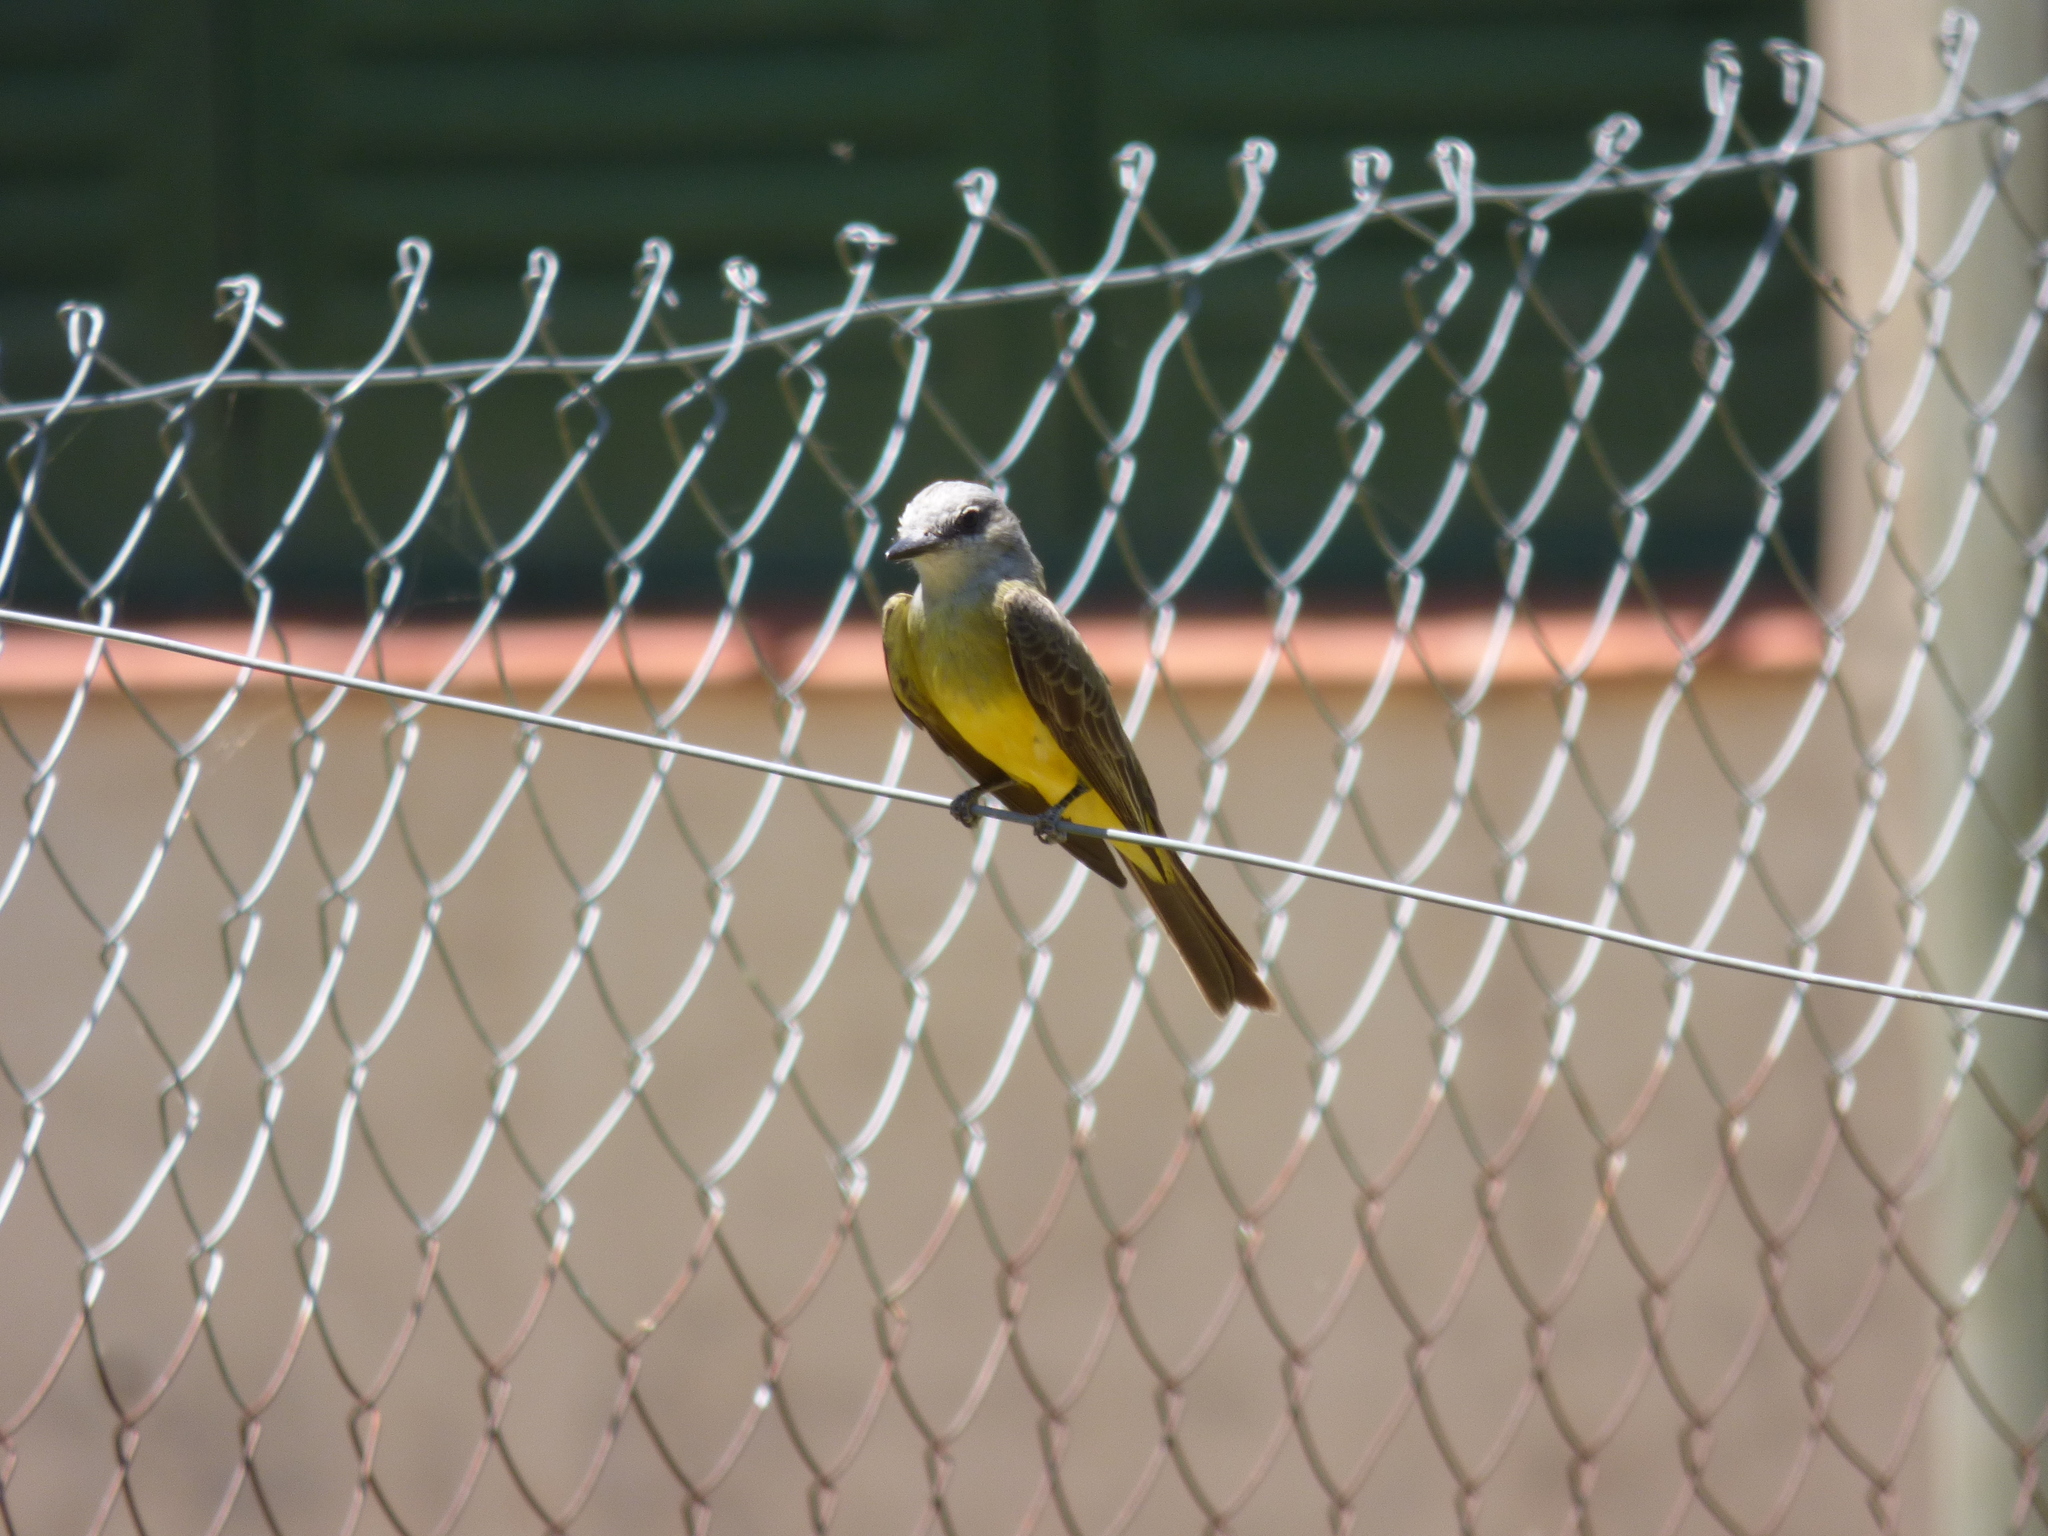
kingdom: Animalia
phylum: Chordata
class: Aves
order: Passeriformes
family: Tyrannidae
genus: Tyrannus
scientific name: Tyrannus melancholicus
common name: Tropical kingbird
